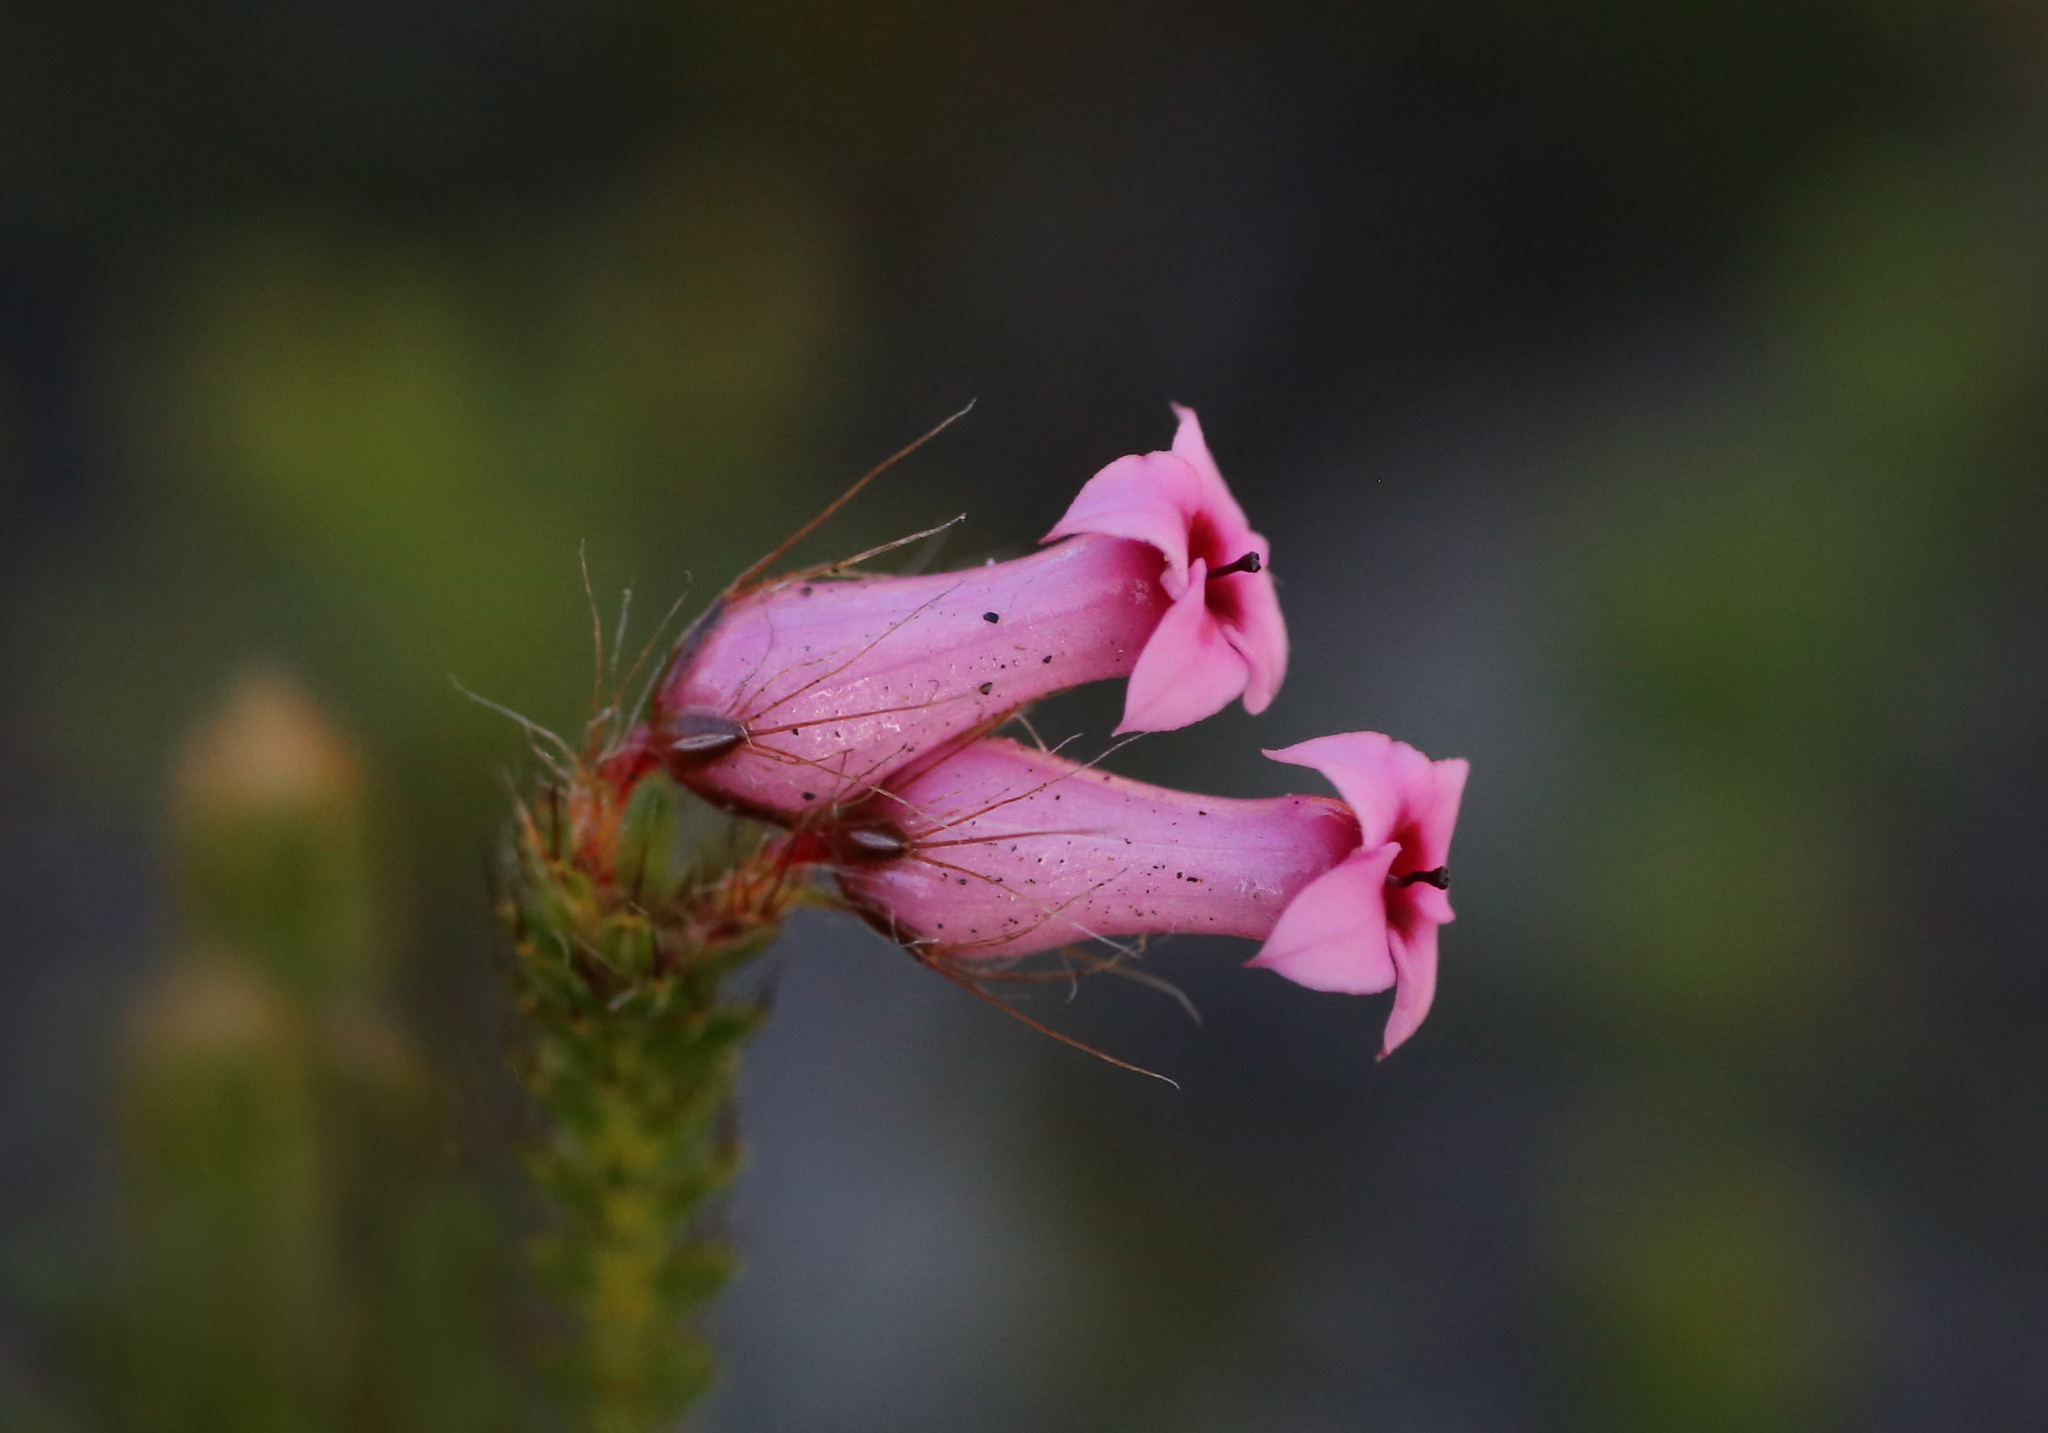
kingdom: Plantae
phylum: Tracheophyta
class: Magnoliopsida
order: Ericales
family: Ericaceae
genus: Erica
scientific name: Erica gysbertii
